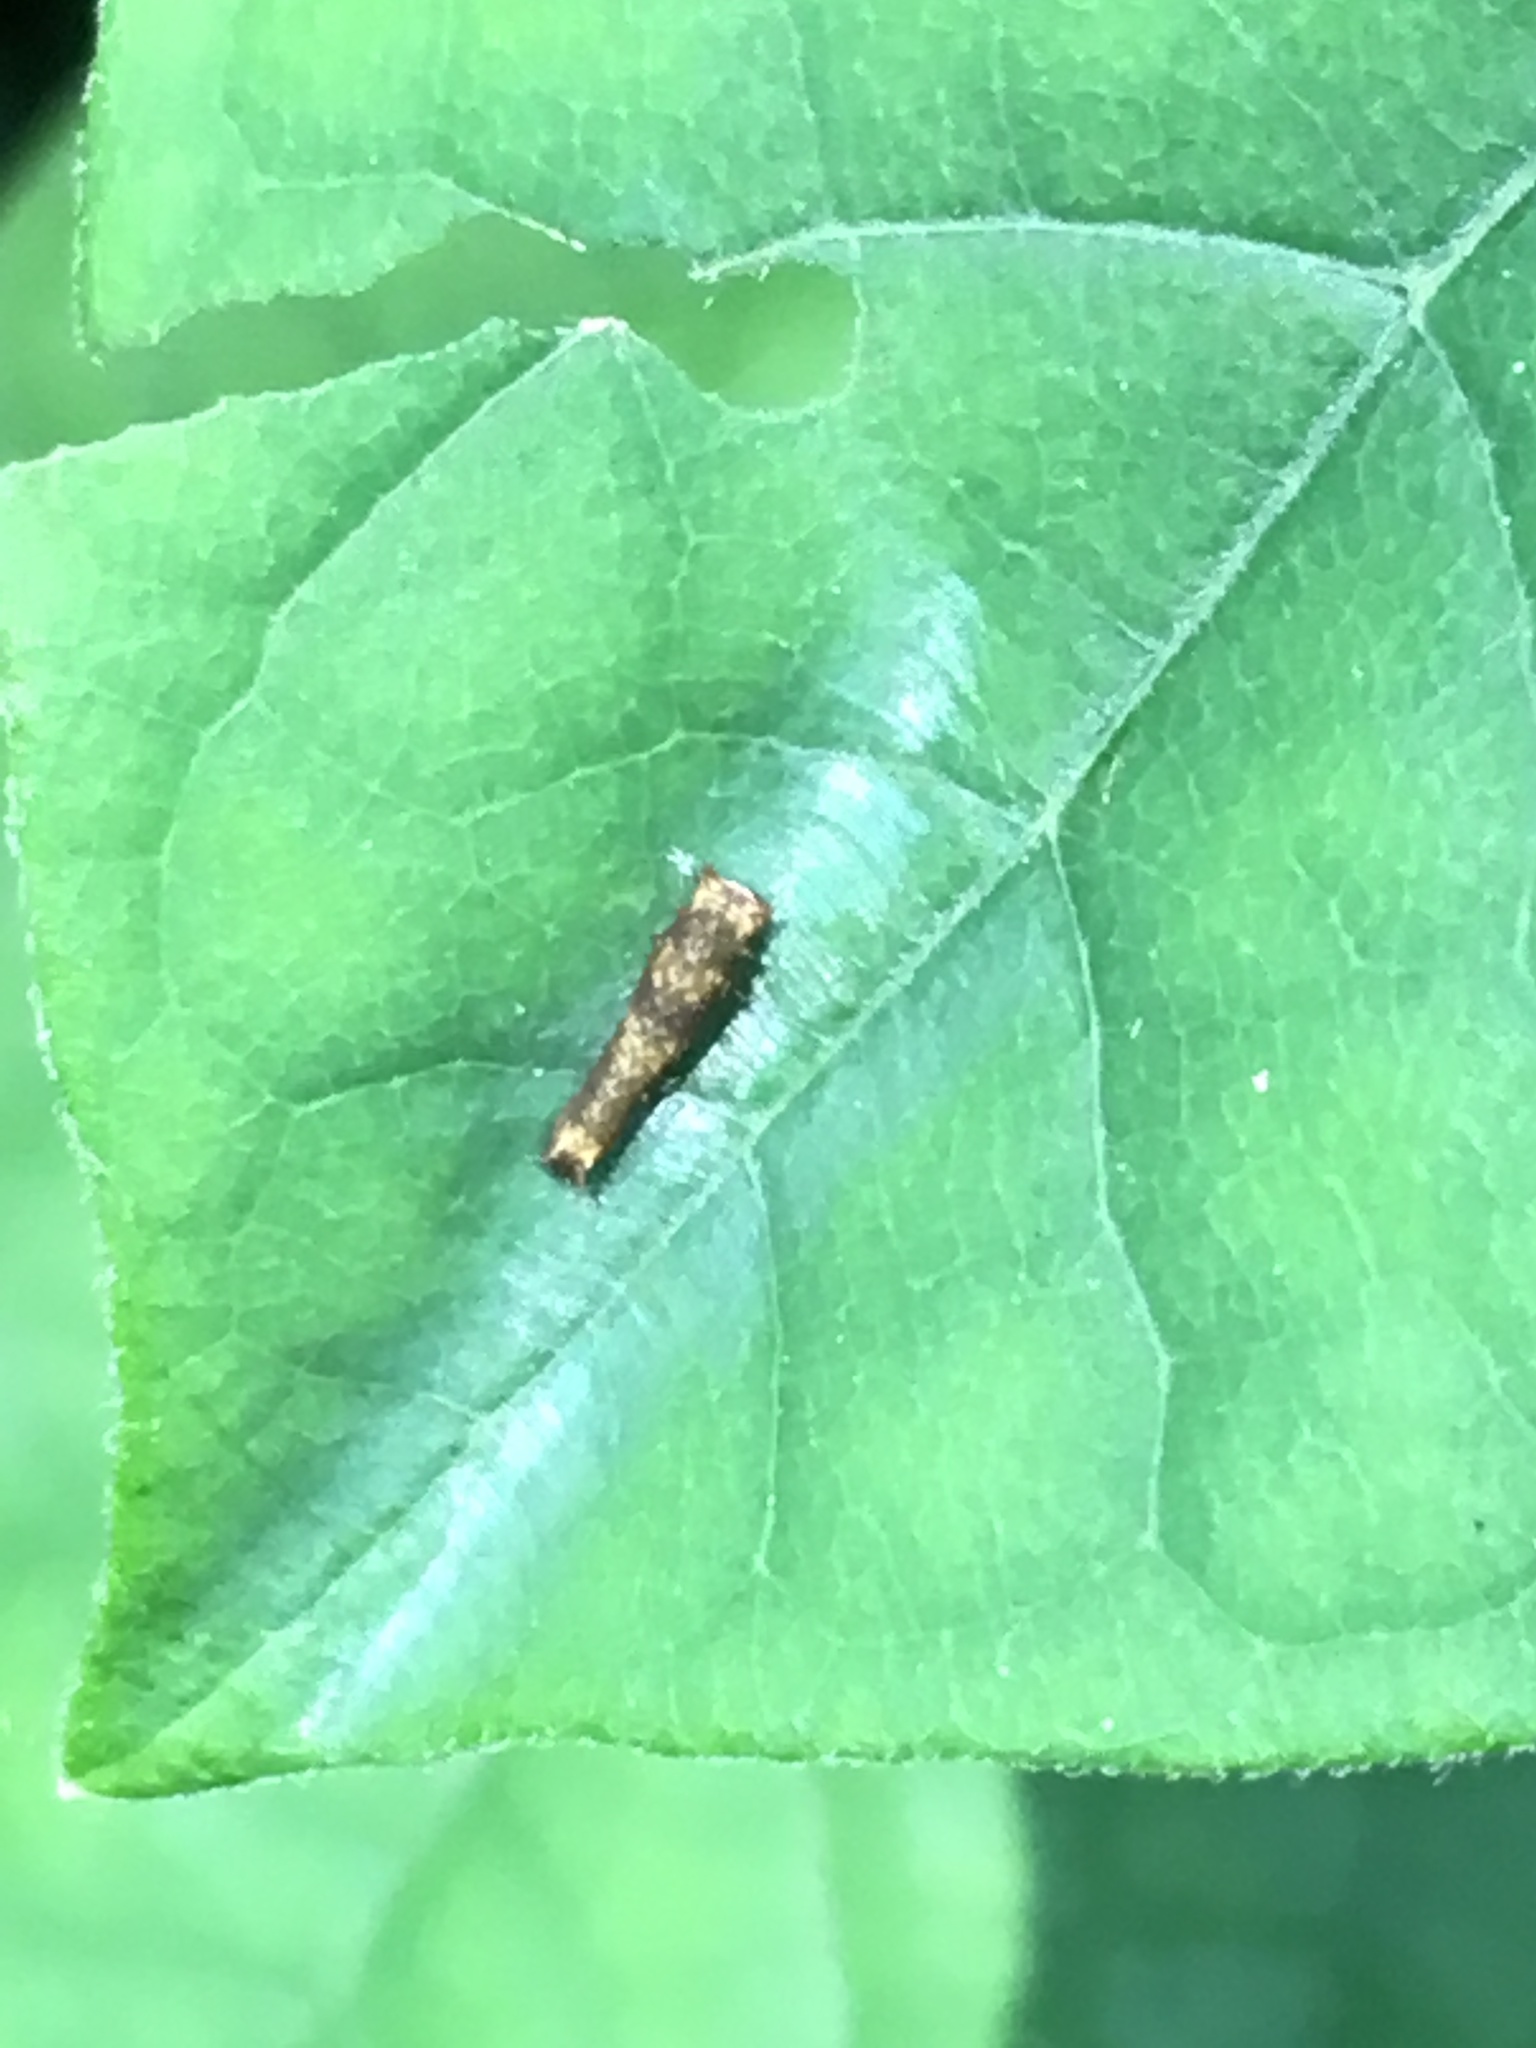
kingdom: Animalia
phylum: Arthropoda
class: Insecta
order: Lepidoptera
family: Papilionidae
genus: Papilio
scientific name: Papilio troilus
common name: Spicebush swallowtail
